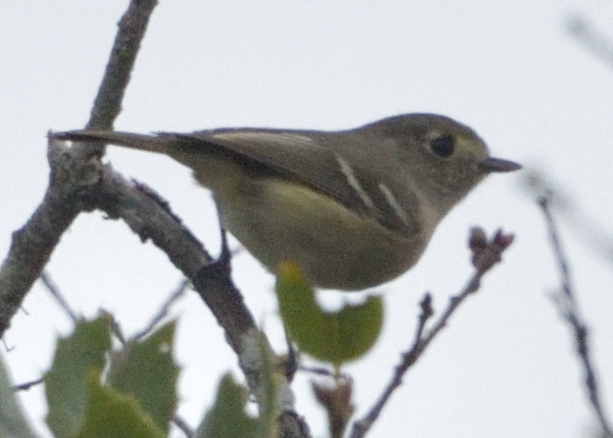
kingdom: Animalia
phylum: Chordata
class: Aves
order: Passeriformes
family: Vireonidae
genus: Vireo
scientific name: Vireo huttoni
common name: Hutton's vireo
